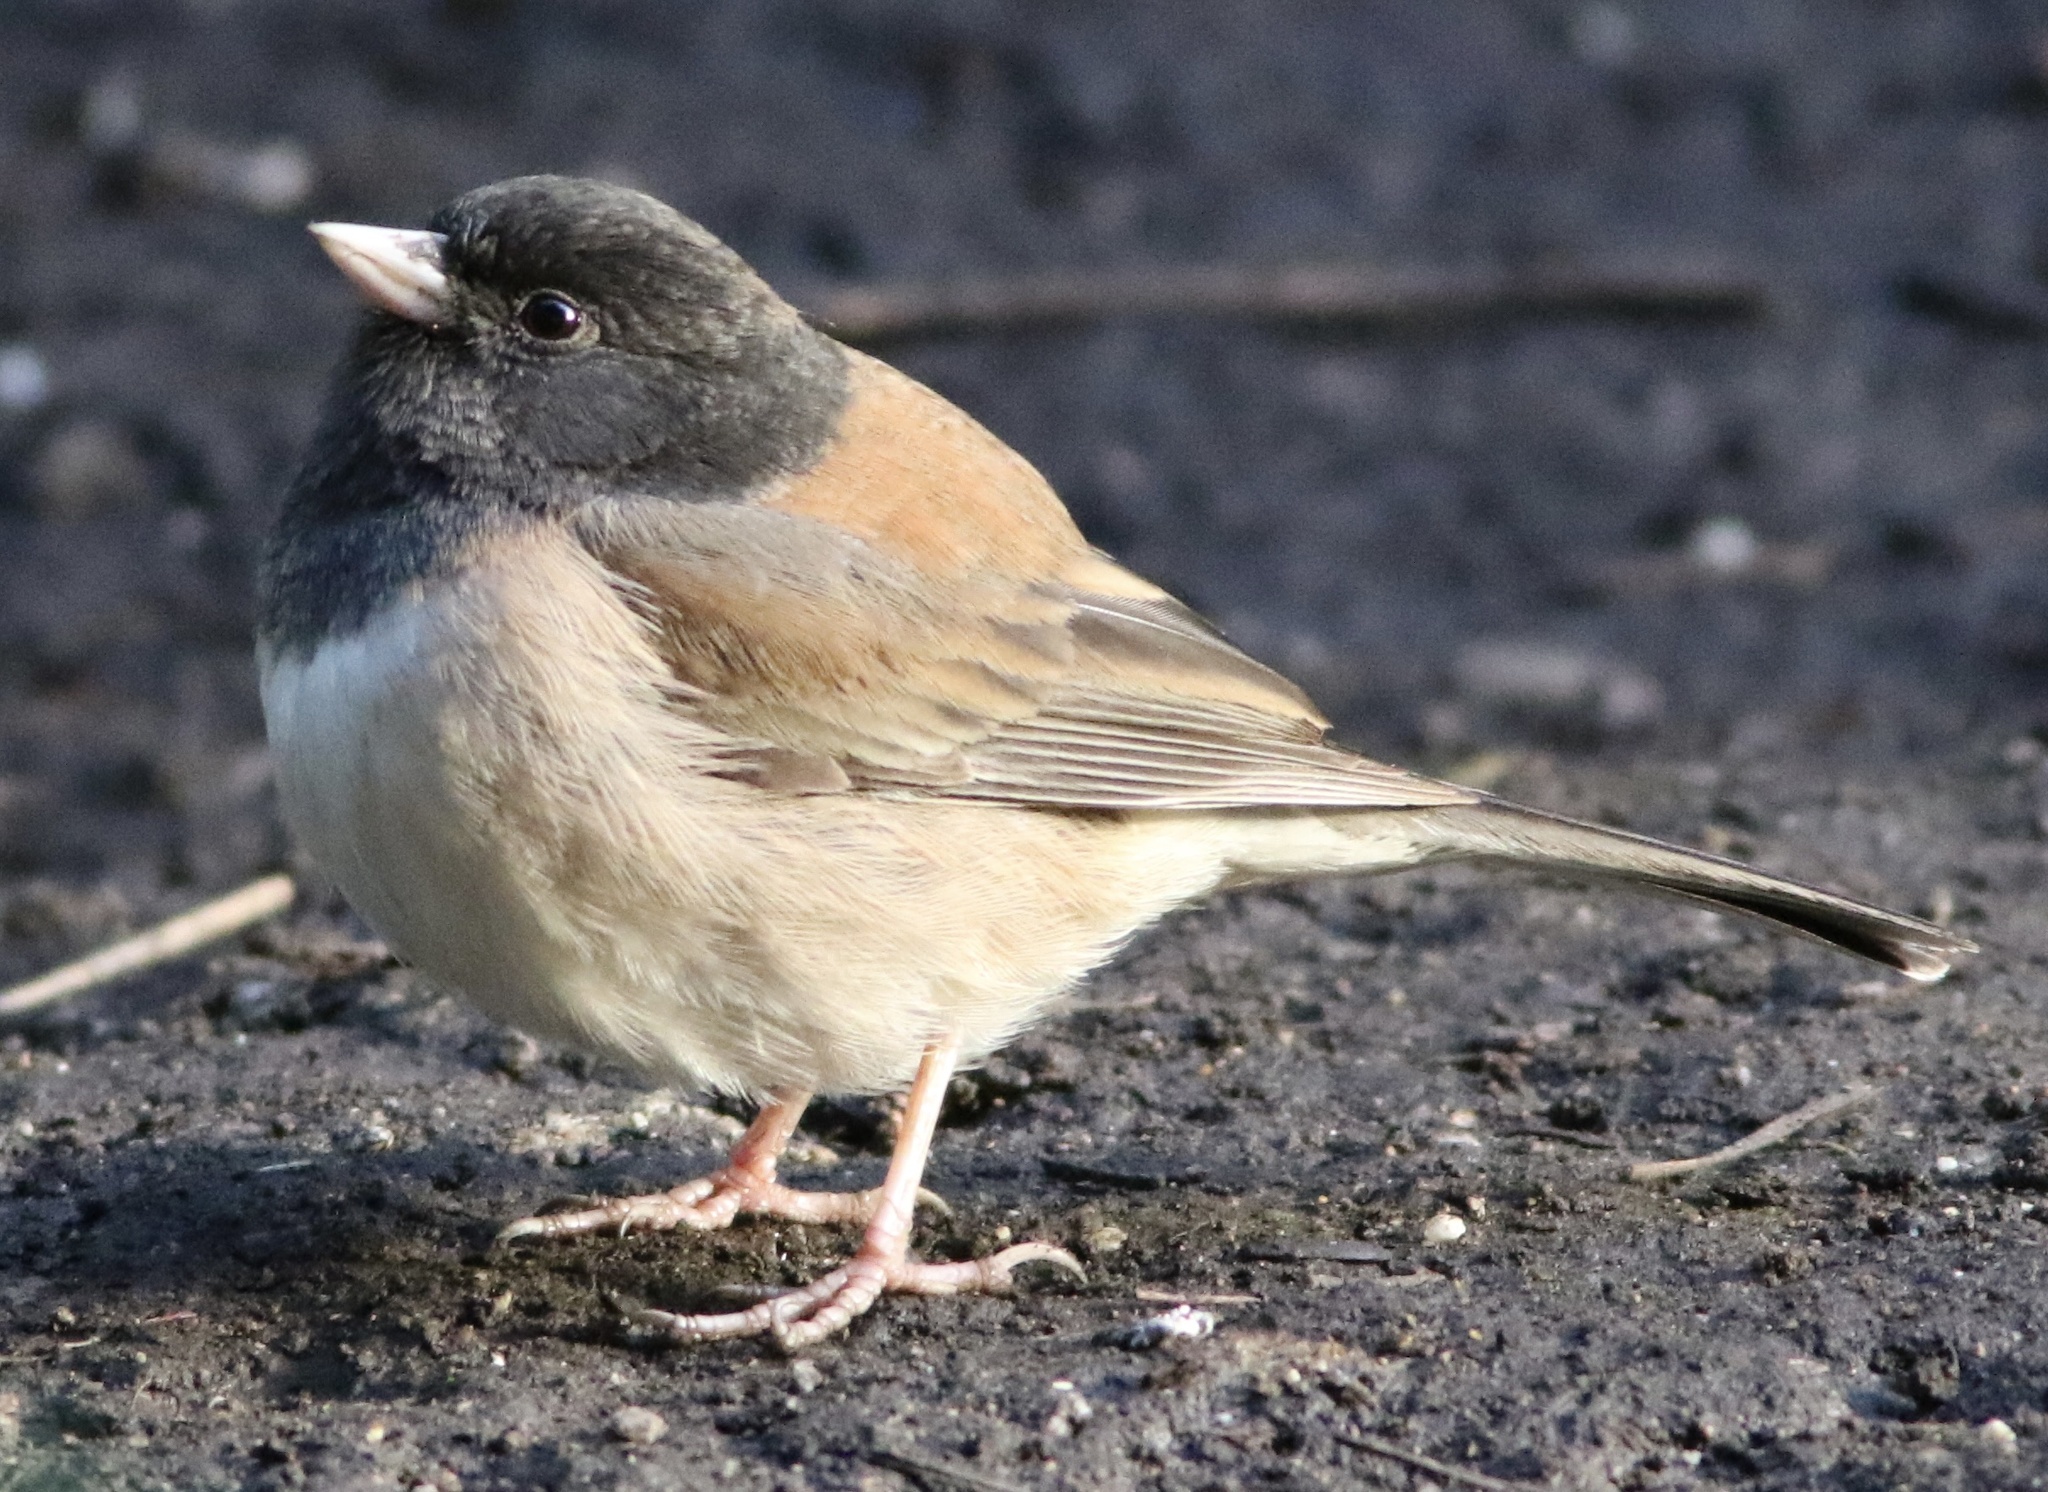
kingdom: Animalia
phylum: Chordata
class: Aves
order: Passeriformes
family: Passerellidae
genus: Junco
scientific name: Junco hyemalis
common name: Dark-eyed junco
